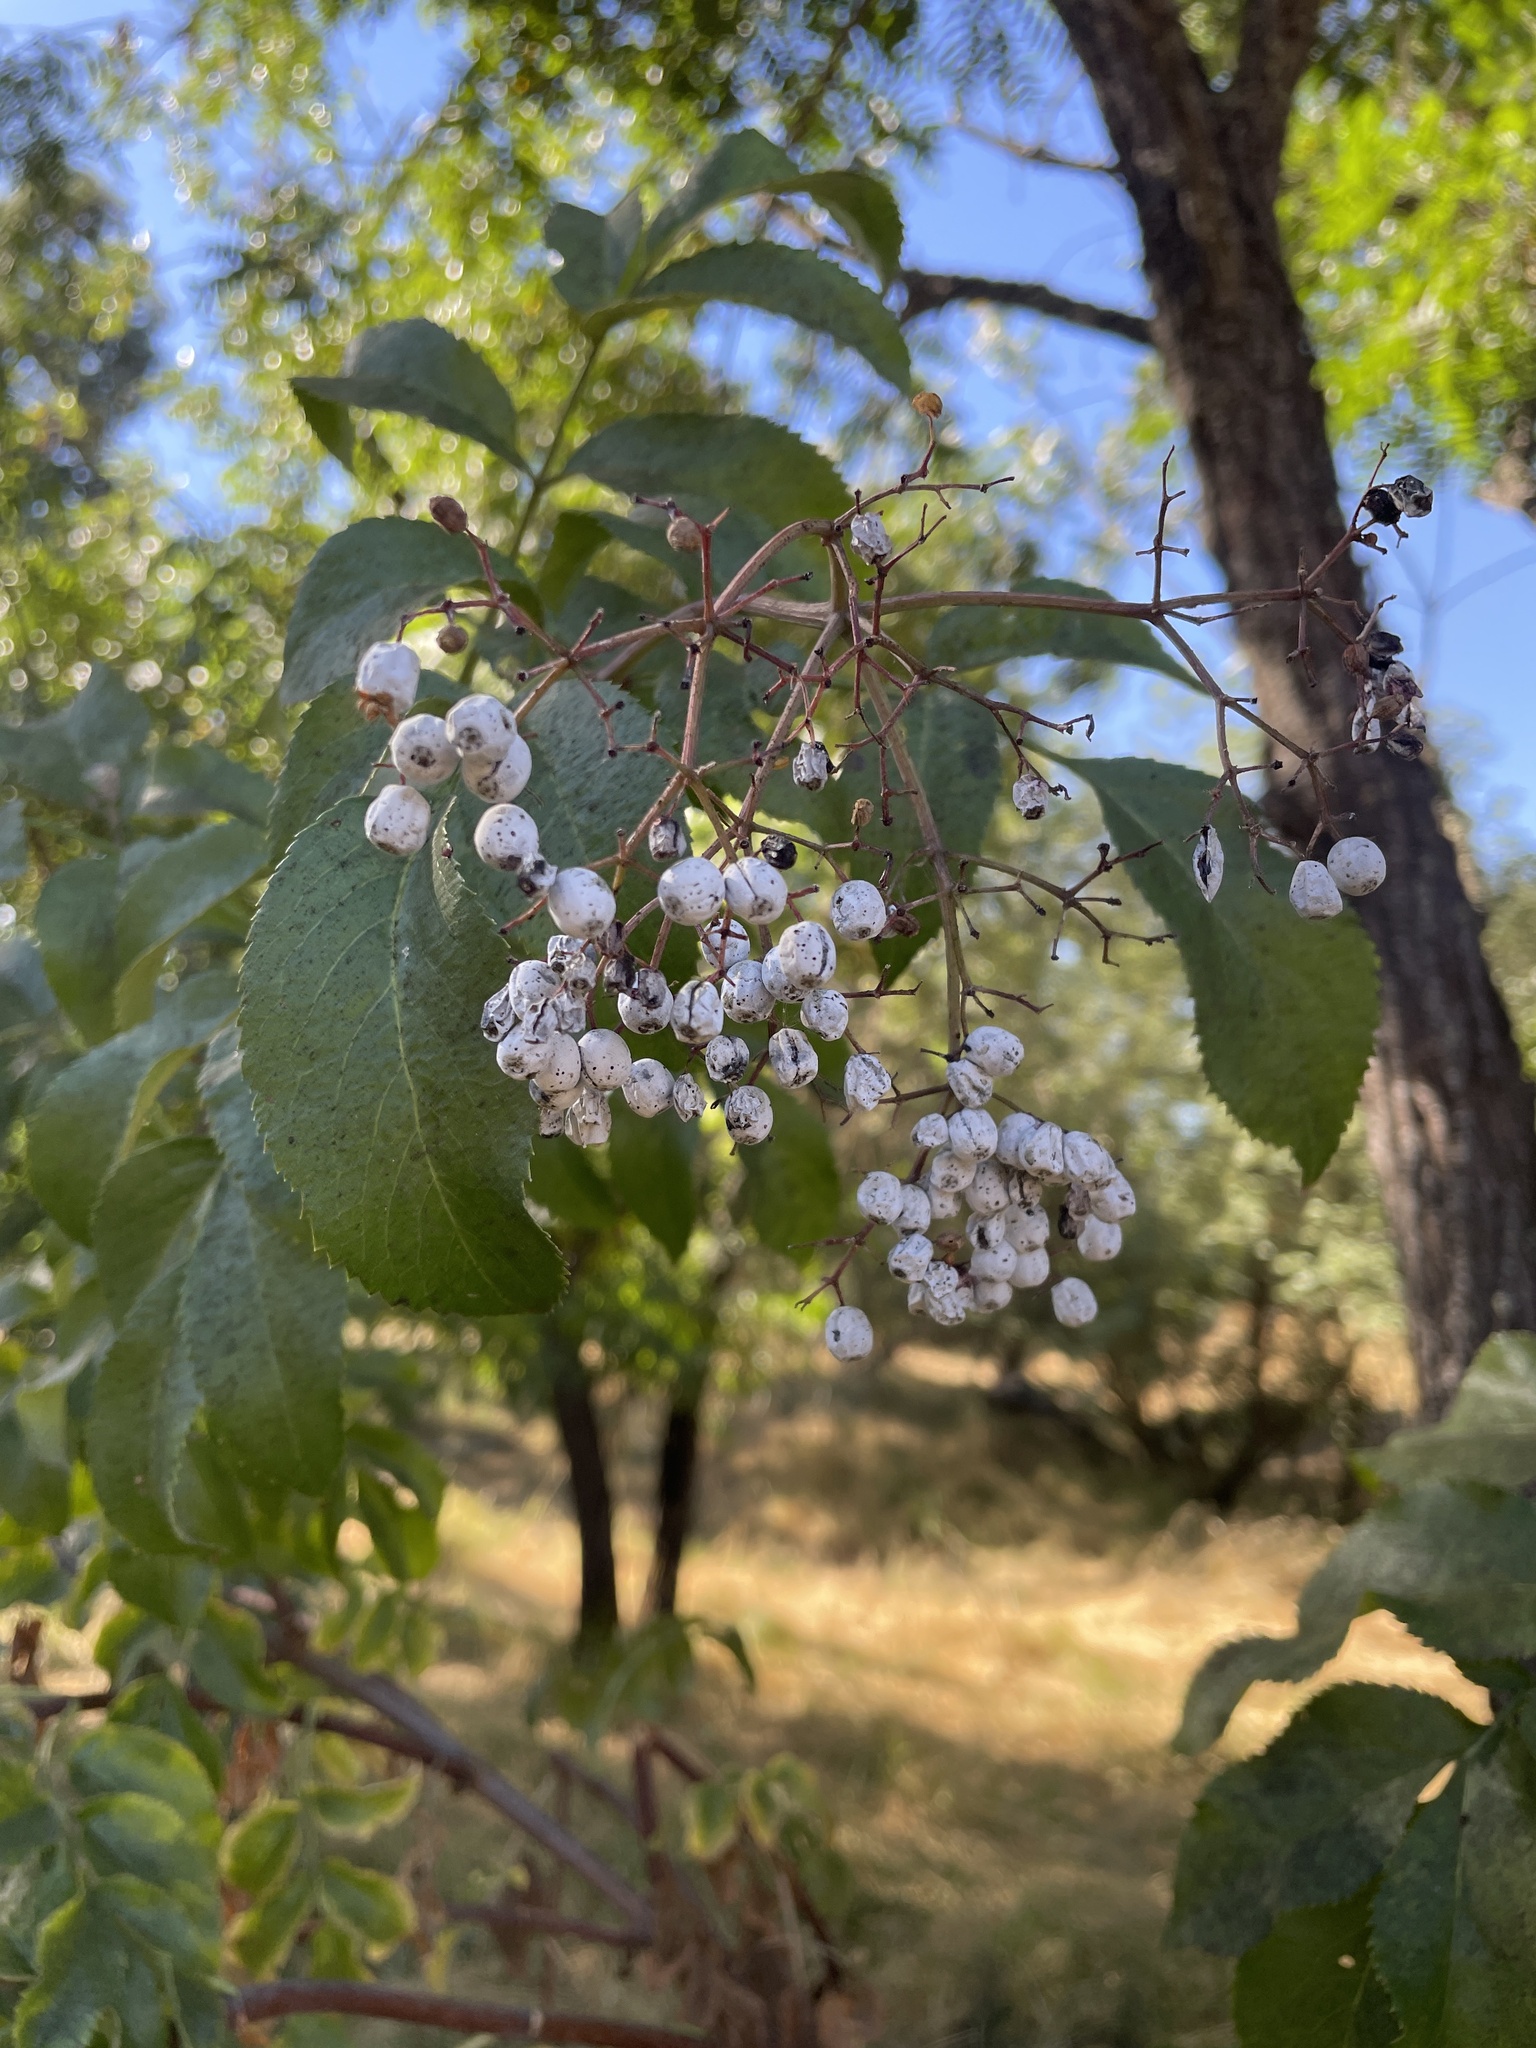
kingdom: Plantae
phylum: Tracheophyta
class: Magnoliopsida
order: Dipsacales
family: Viburnaceae
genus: Sambucus
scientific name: Sambucus cerulea
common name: Blue elder
